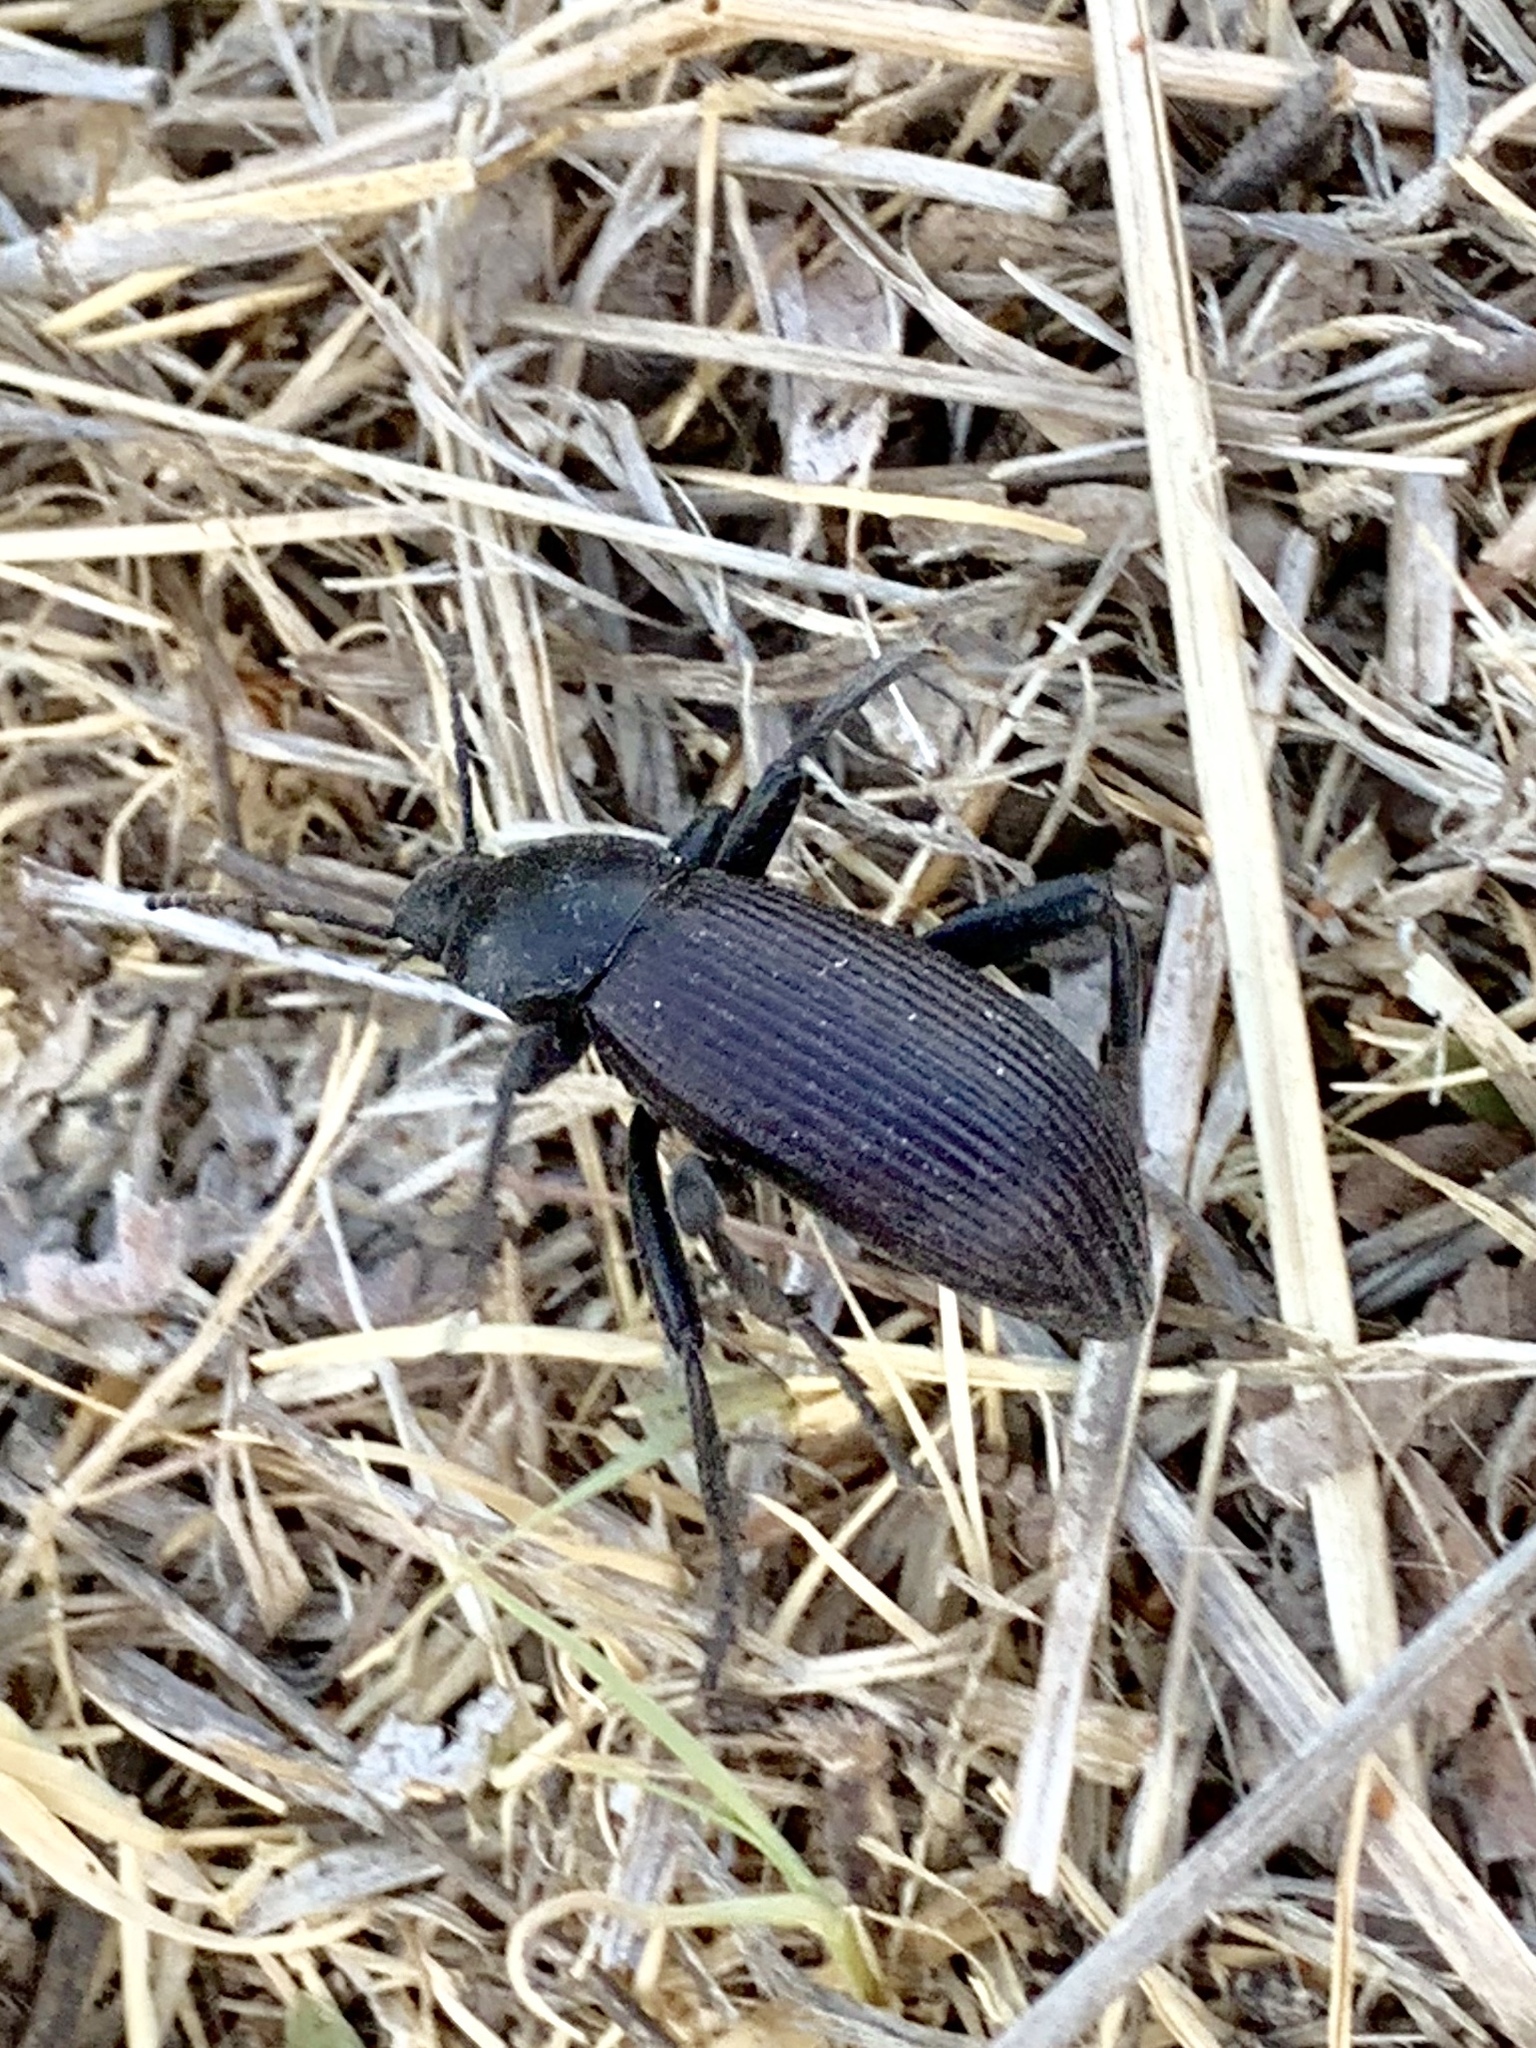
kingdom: Animalia
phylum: Arthropoda
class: Insecta
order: Coleoptera
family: Tenebrionidae
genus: Eleodes
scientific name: Eleodes obscura
